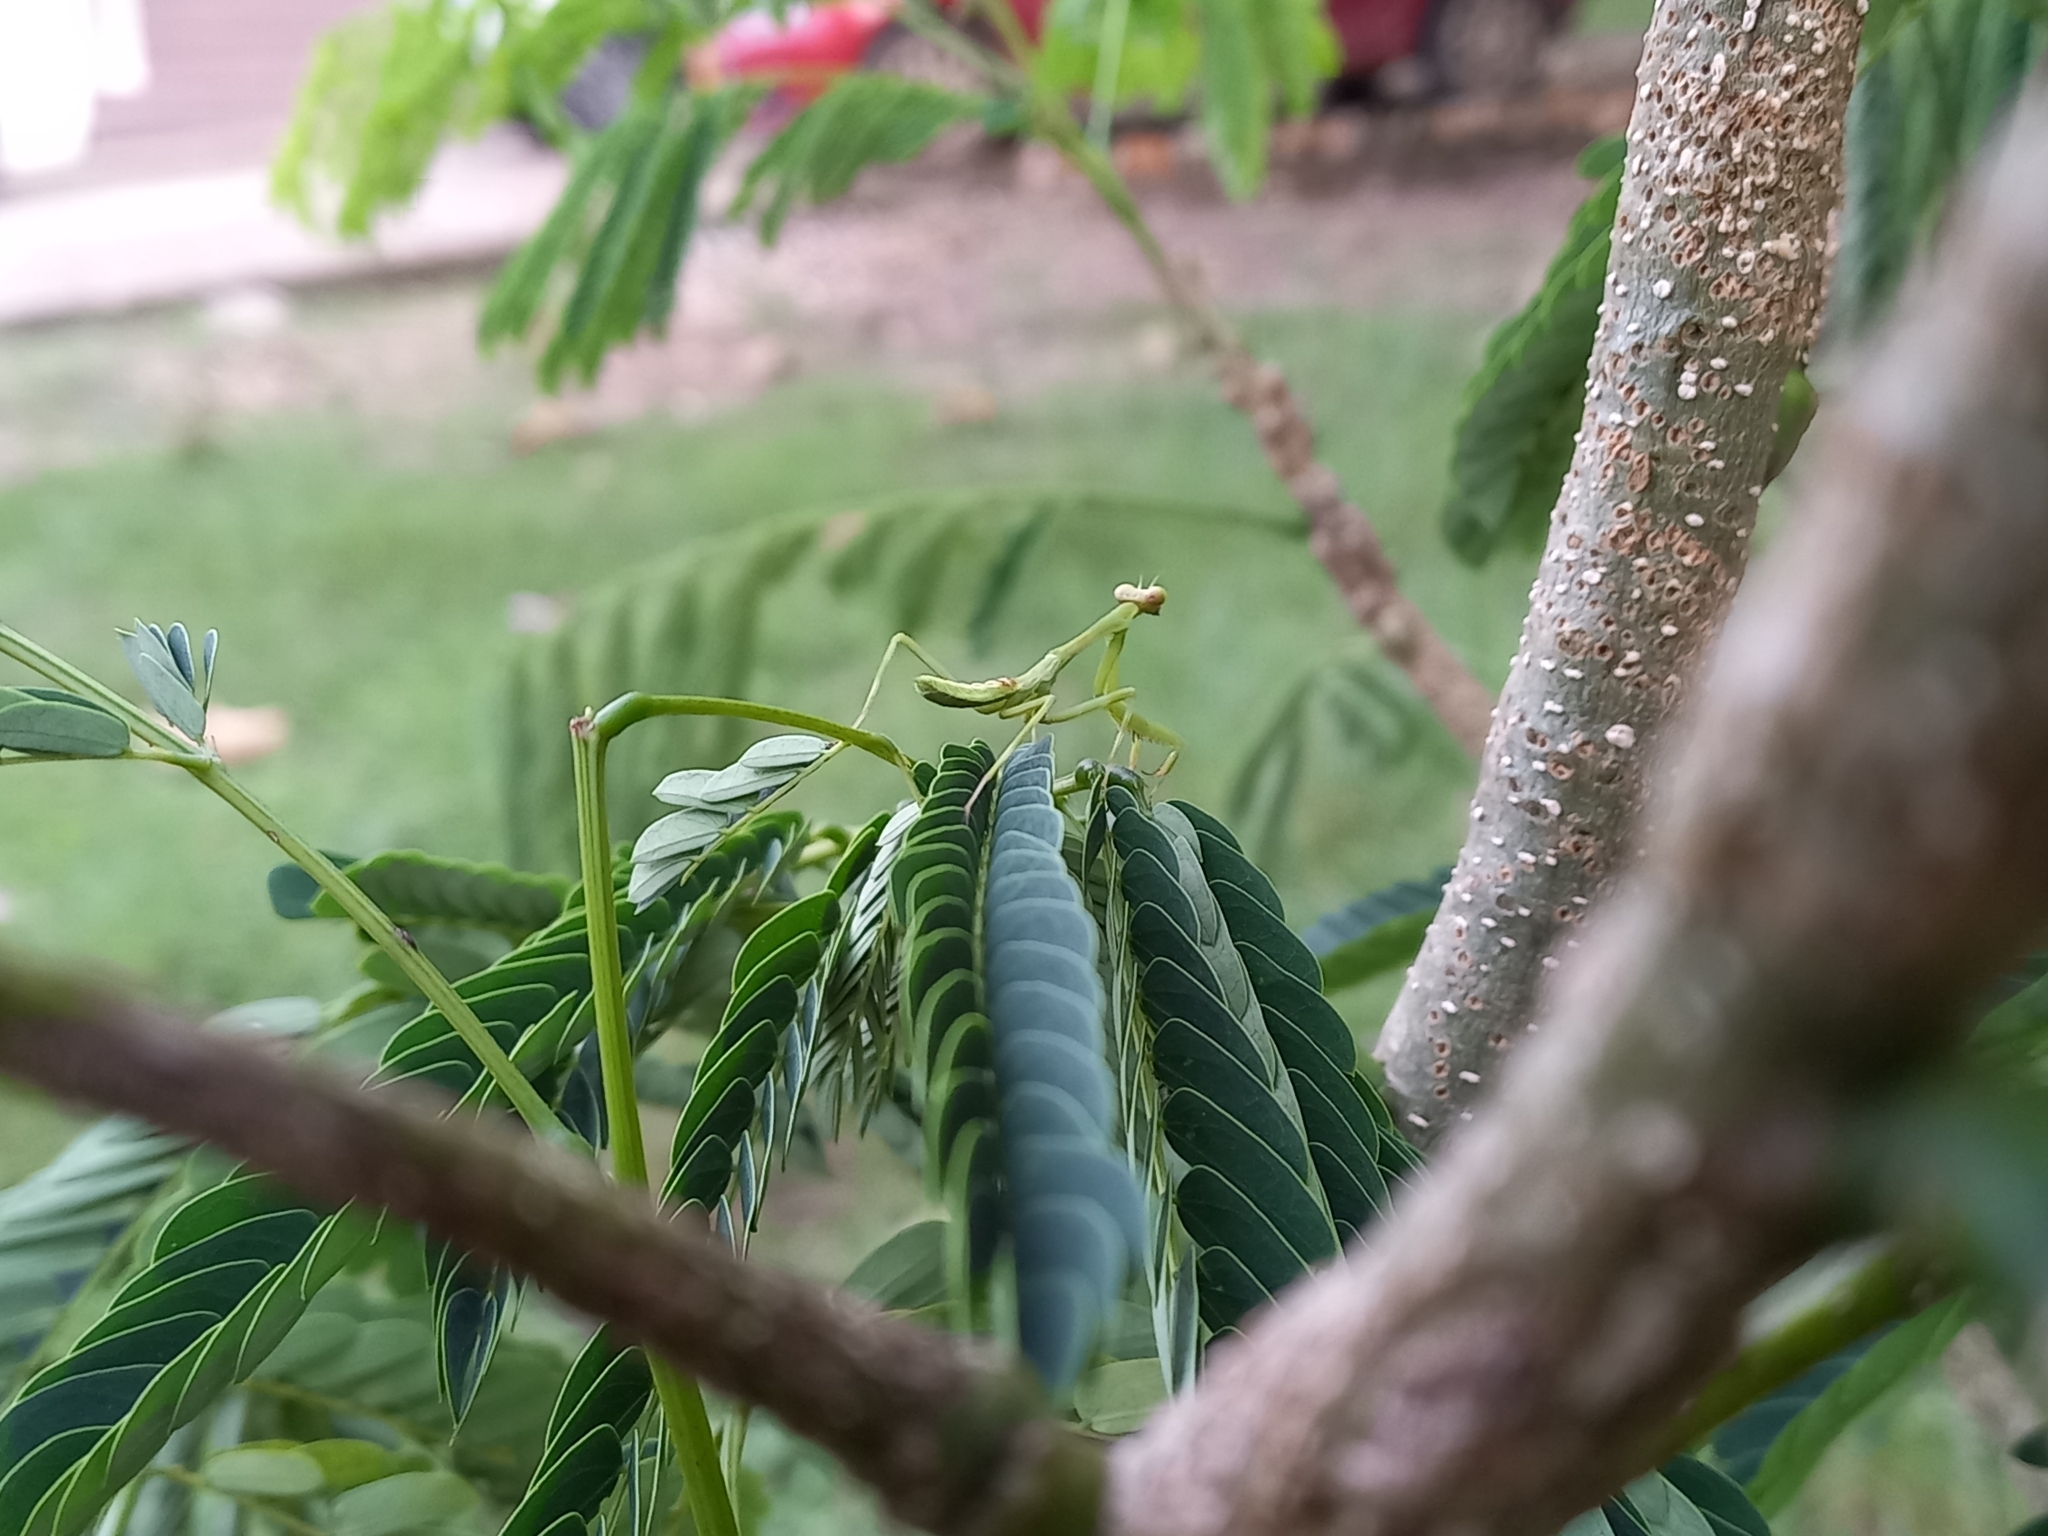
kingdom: Animalia
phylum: Arthropoda
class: Insecta
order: Mantodea
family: Mantidae
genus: Stagmatoptera
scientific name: Stagmatoptera septentrionalis
